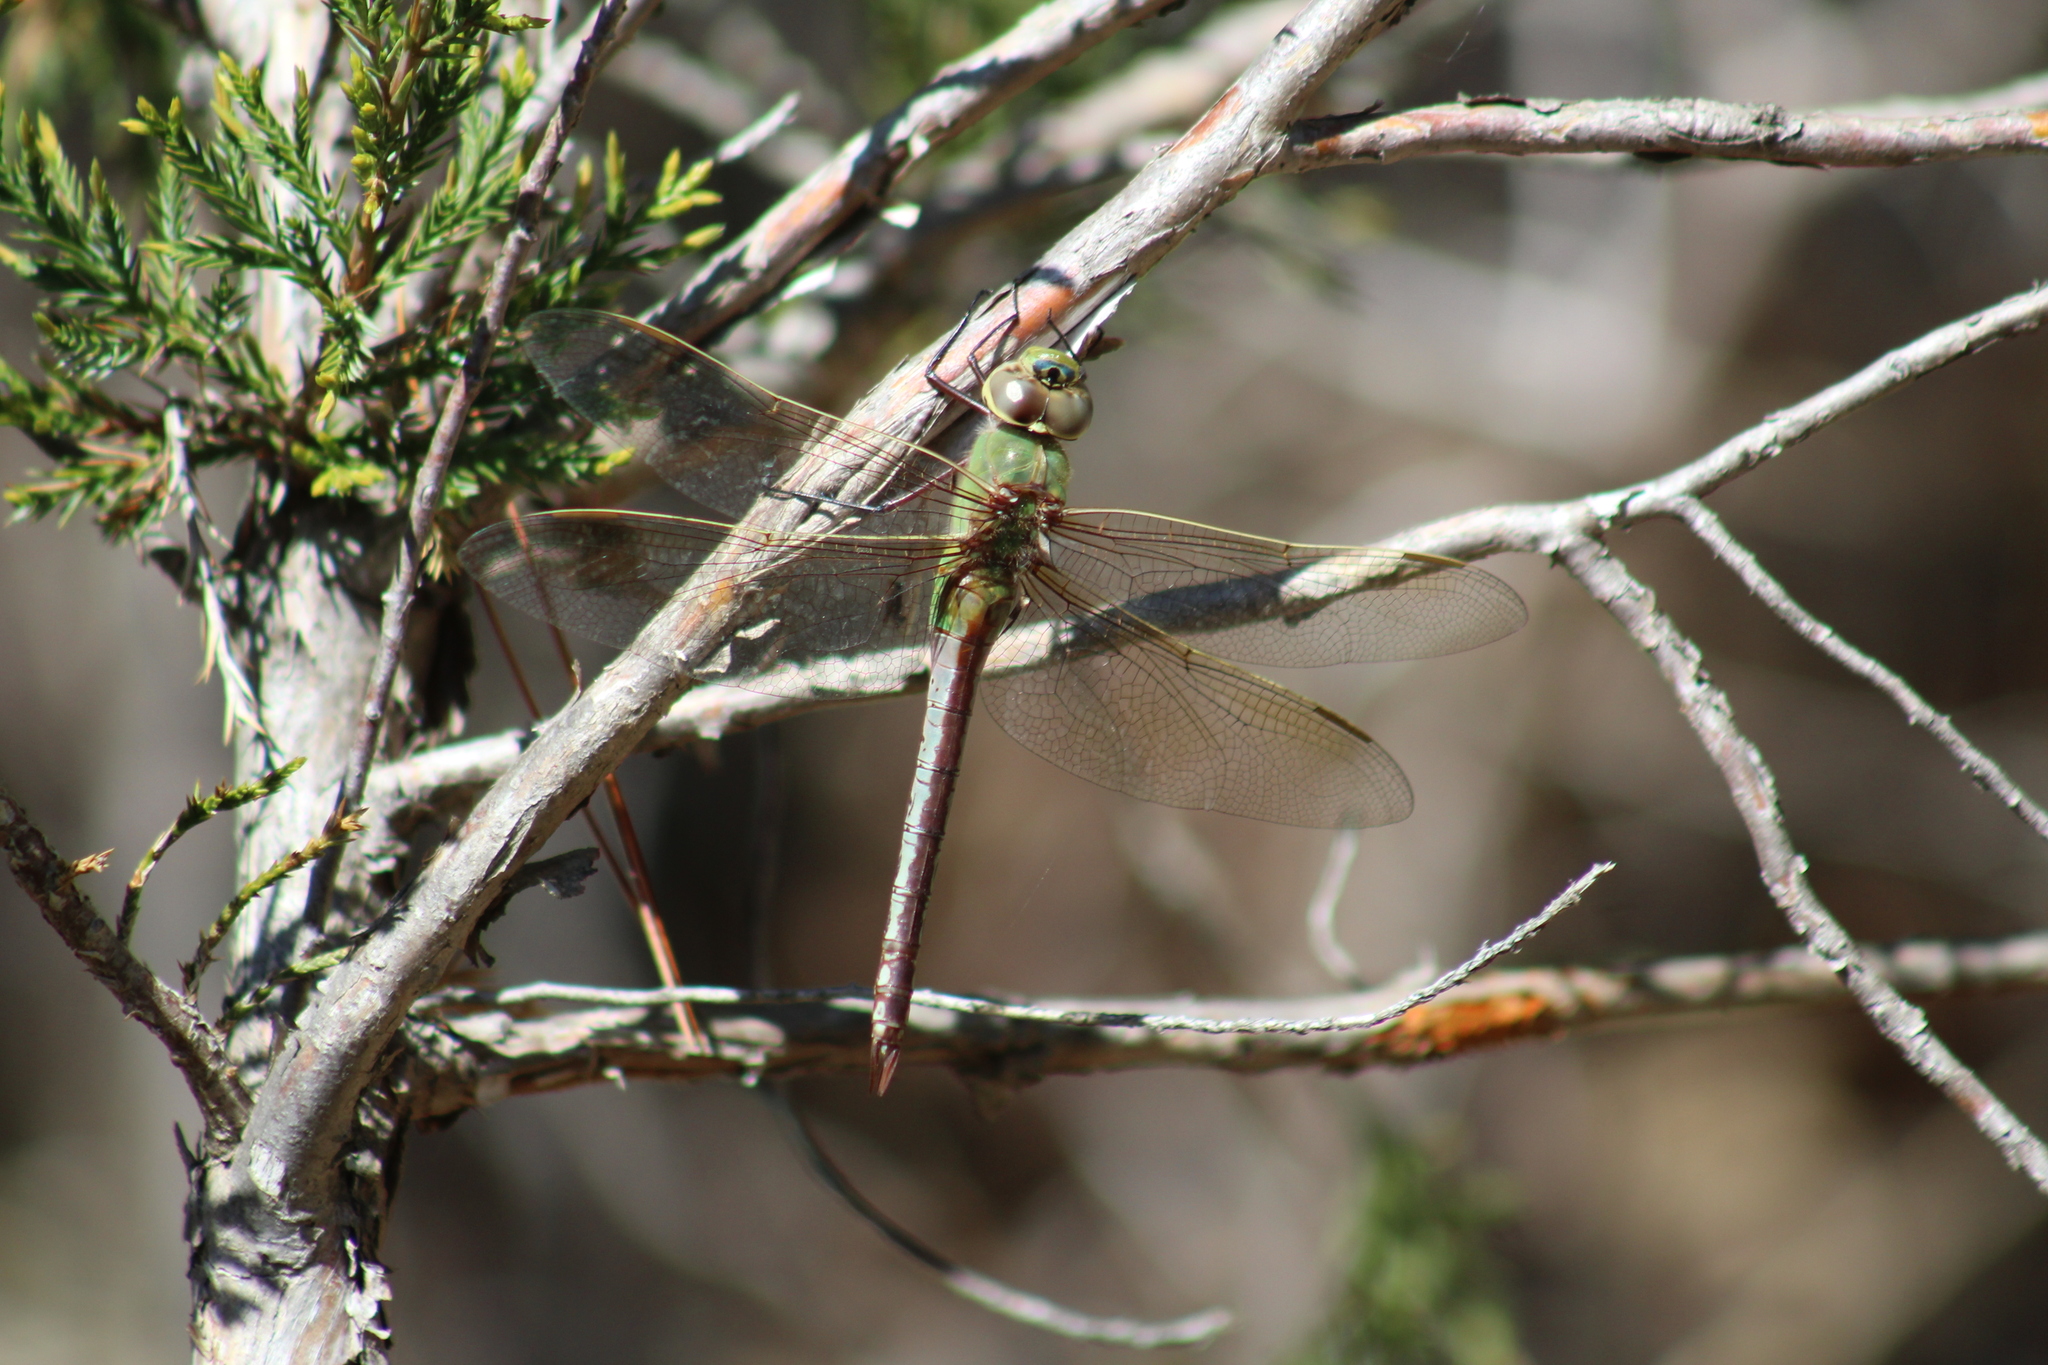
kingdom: Animalia
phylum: Arthropoda
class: Insecta
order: Odonata
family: Aeshnidae
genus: Anax
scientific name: Anax junius
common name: Common green darner
